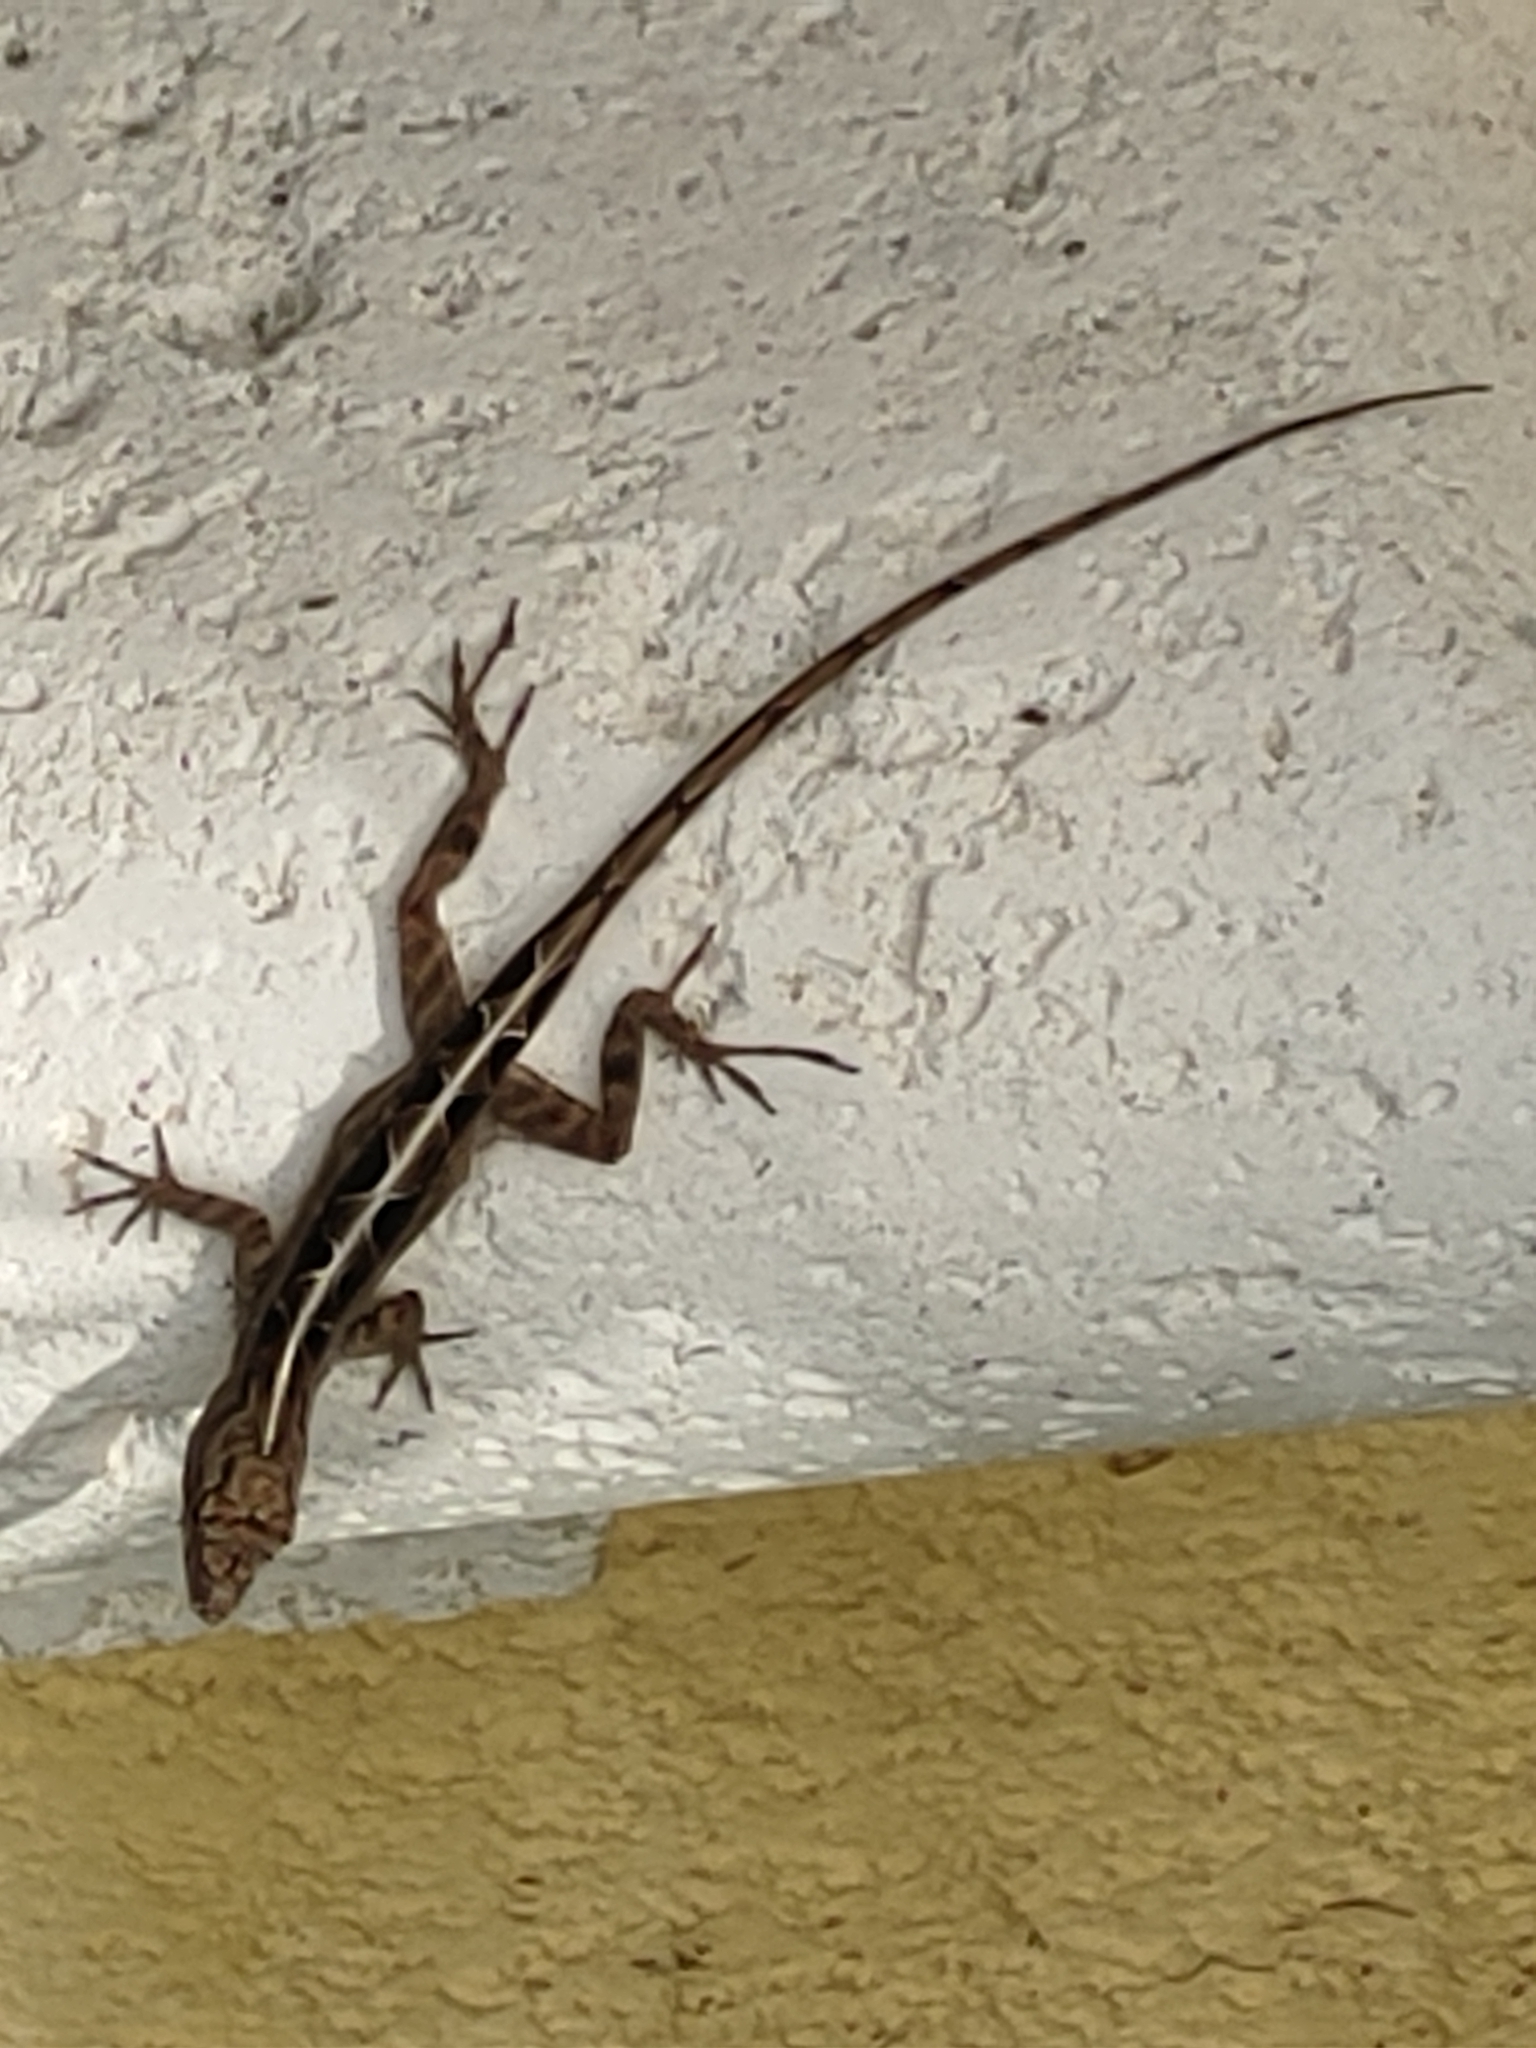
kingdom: Animalia
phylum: Chordata
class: Squamata
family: Dactyloidae
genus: Anolis
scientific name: Anolis sagrei
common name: Brown anole
